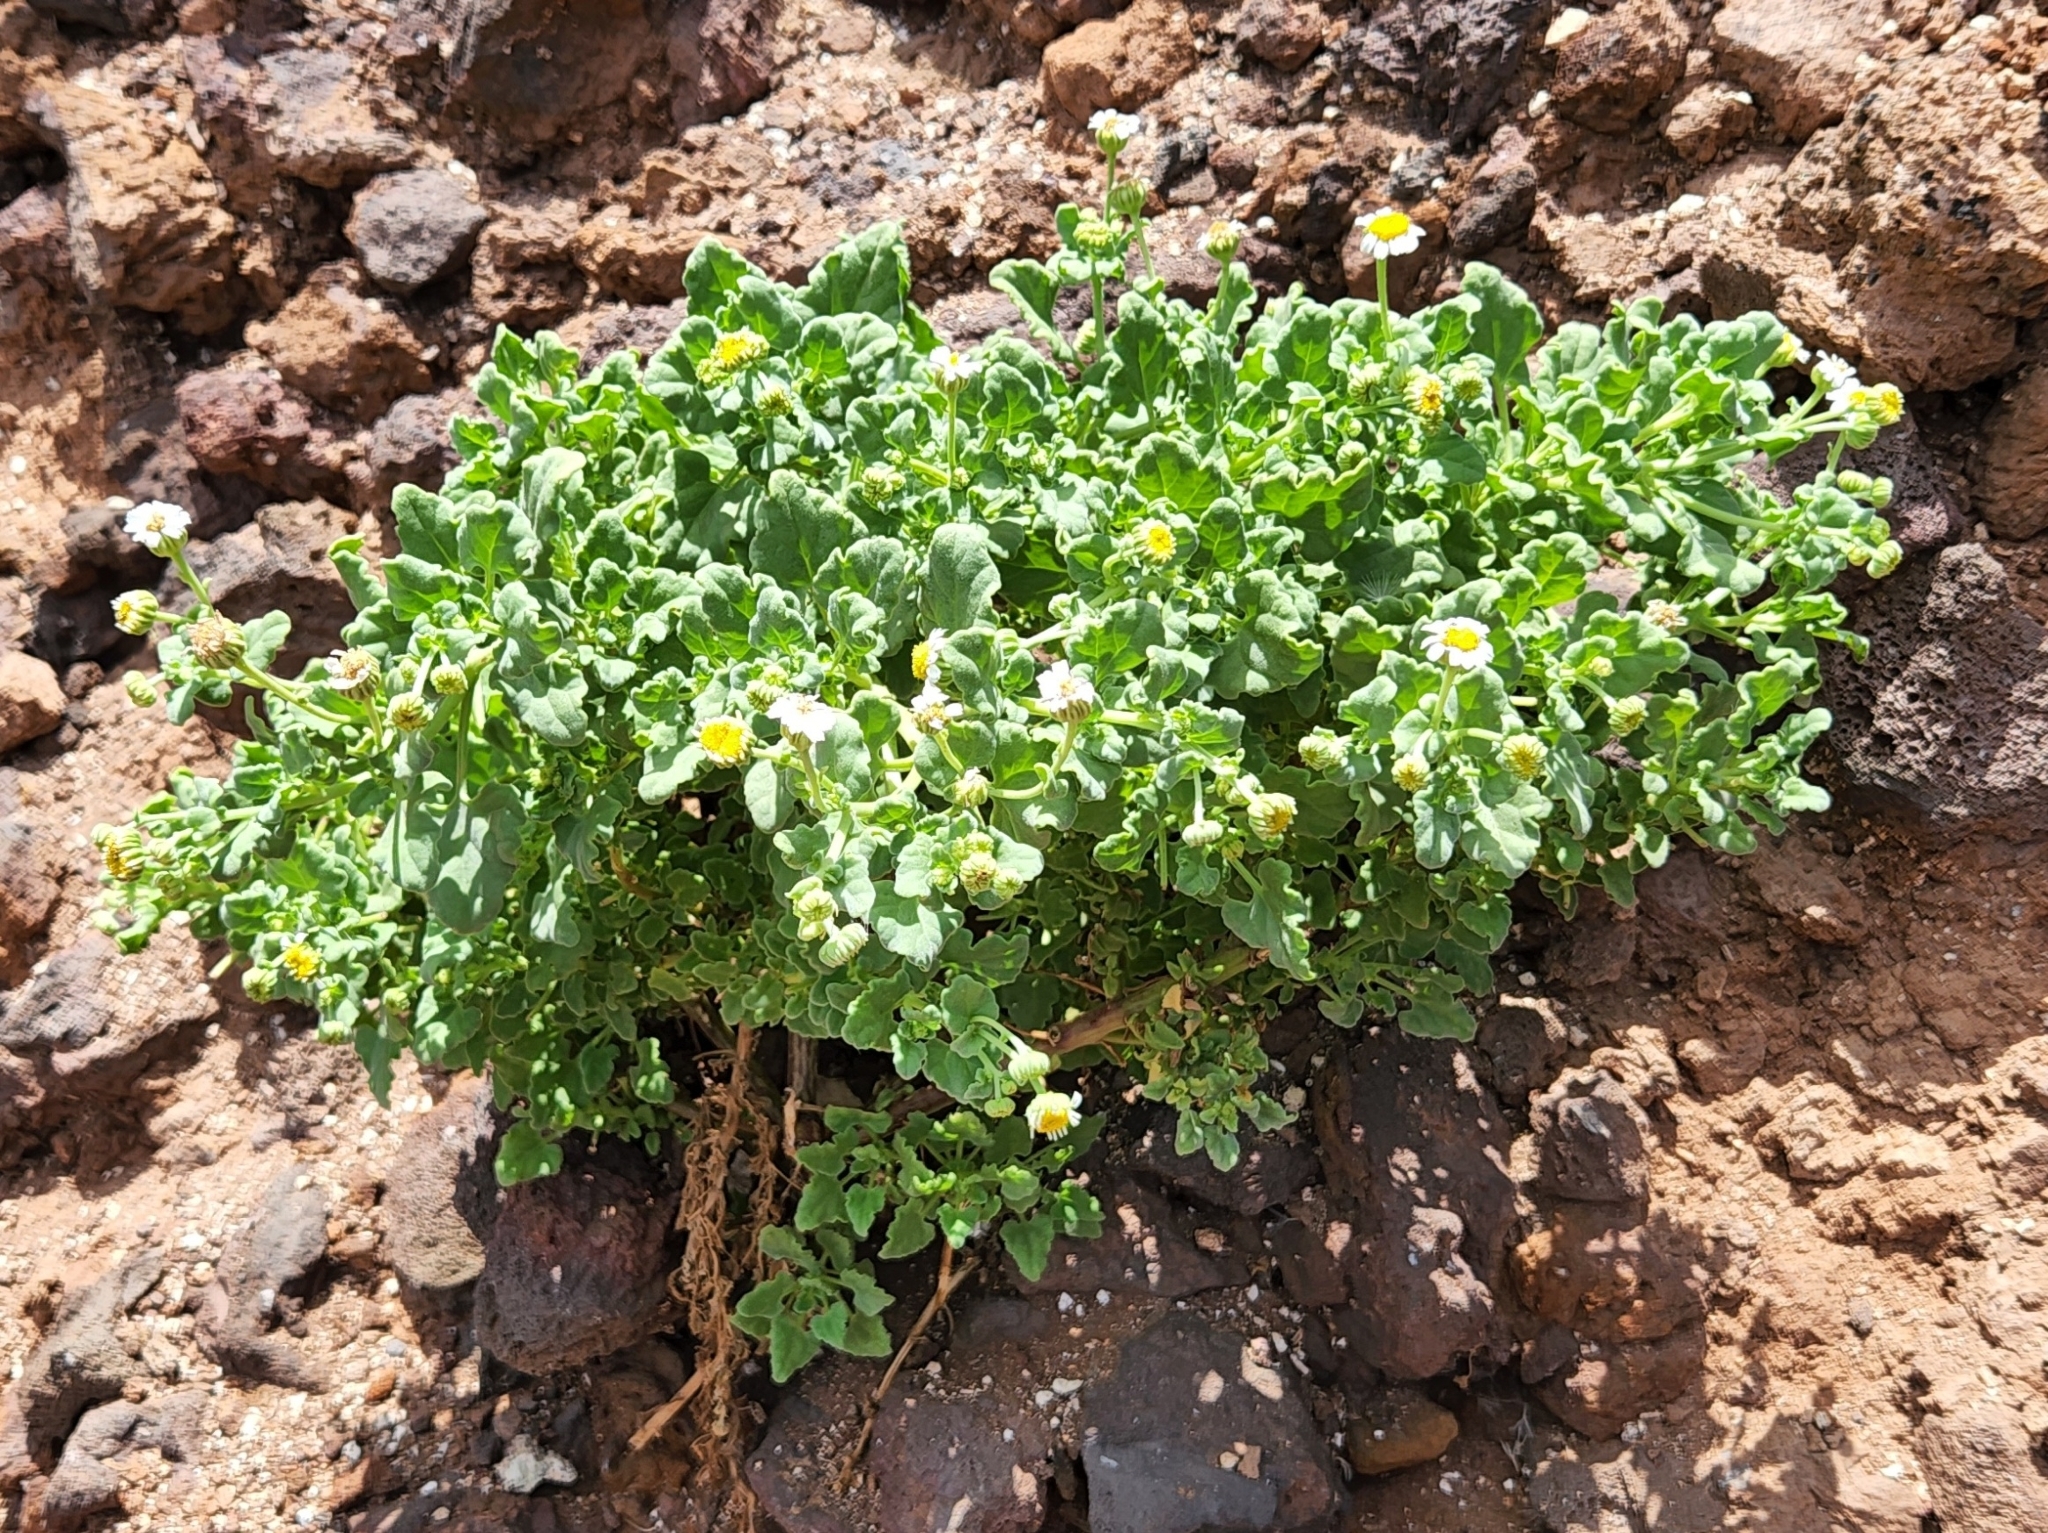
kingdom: Plantae
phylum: Tracheophyta
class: Magnoliopsida
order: Asterales
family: Asteraceae
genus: Perityle
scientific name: Perityle socorrosensis
